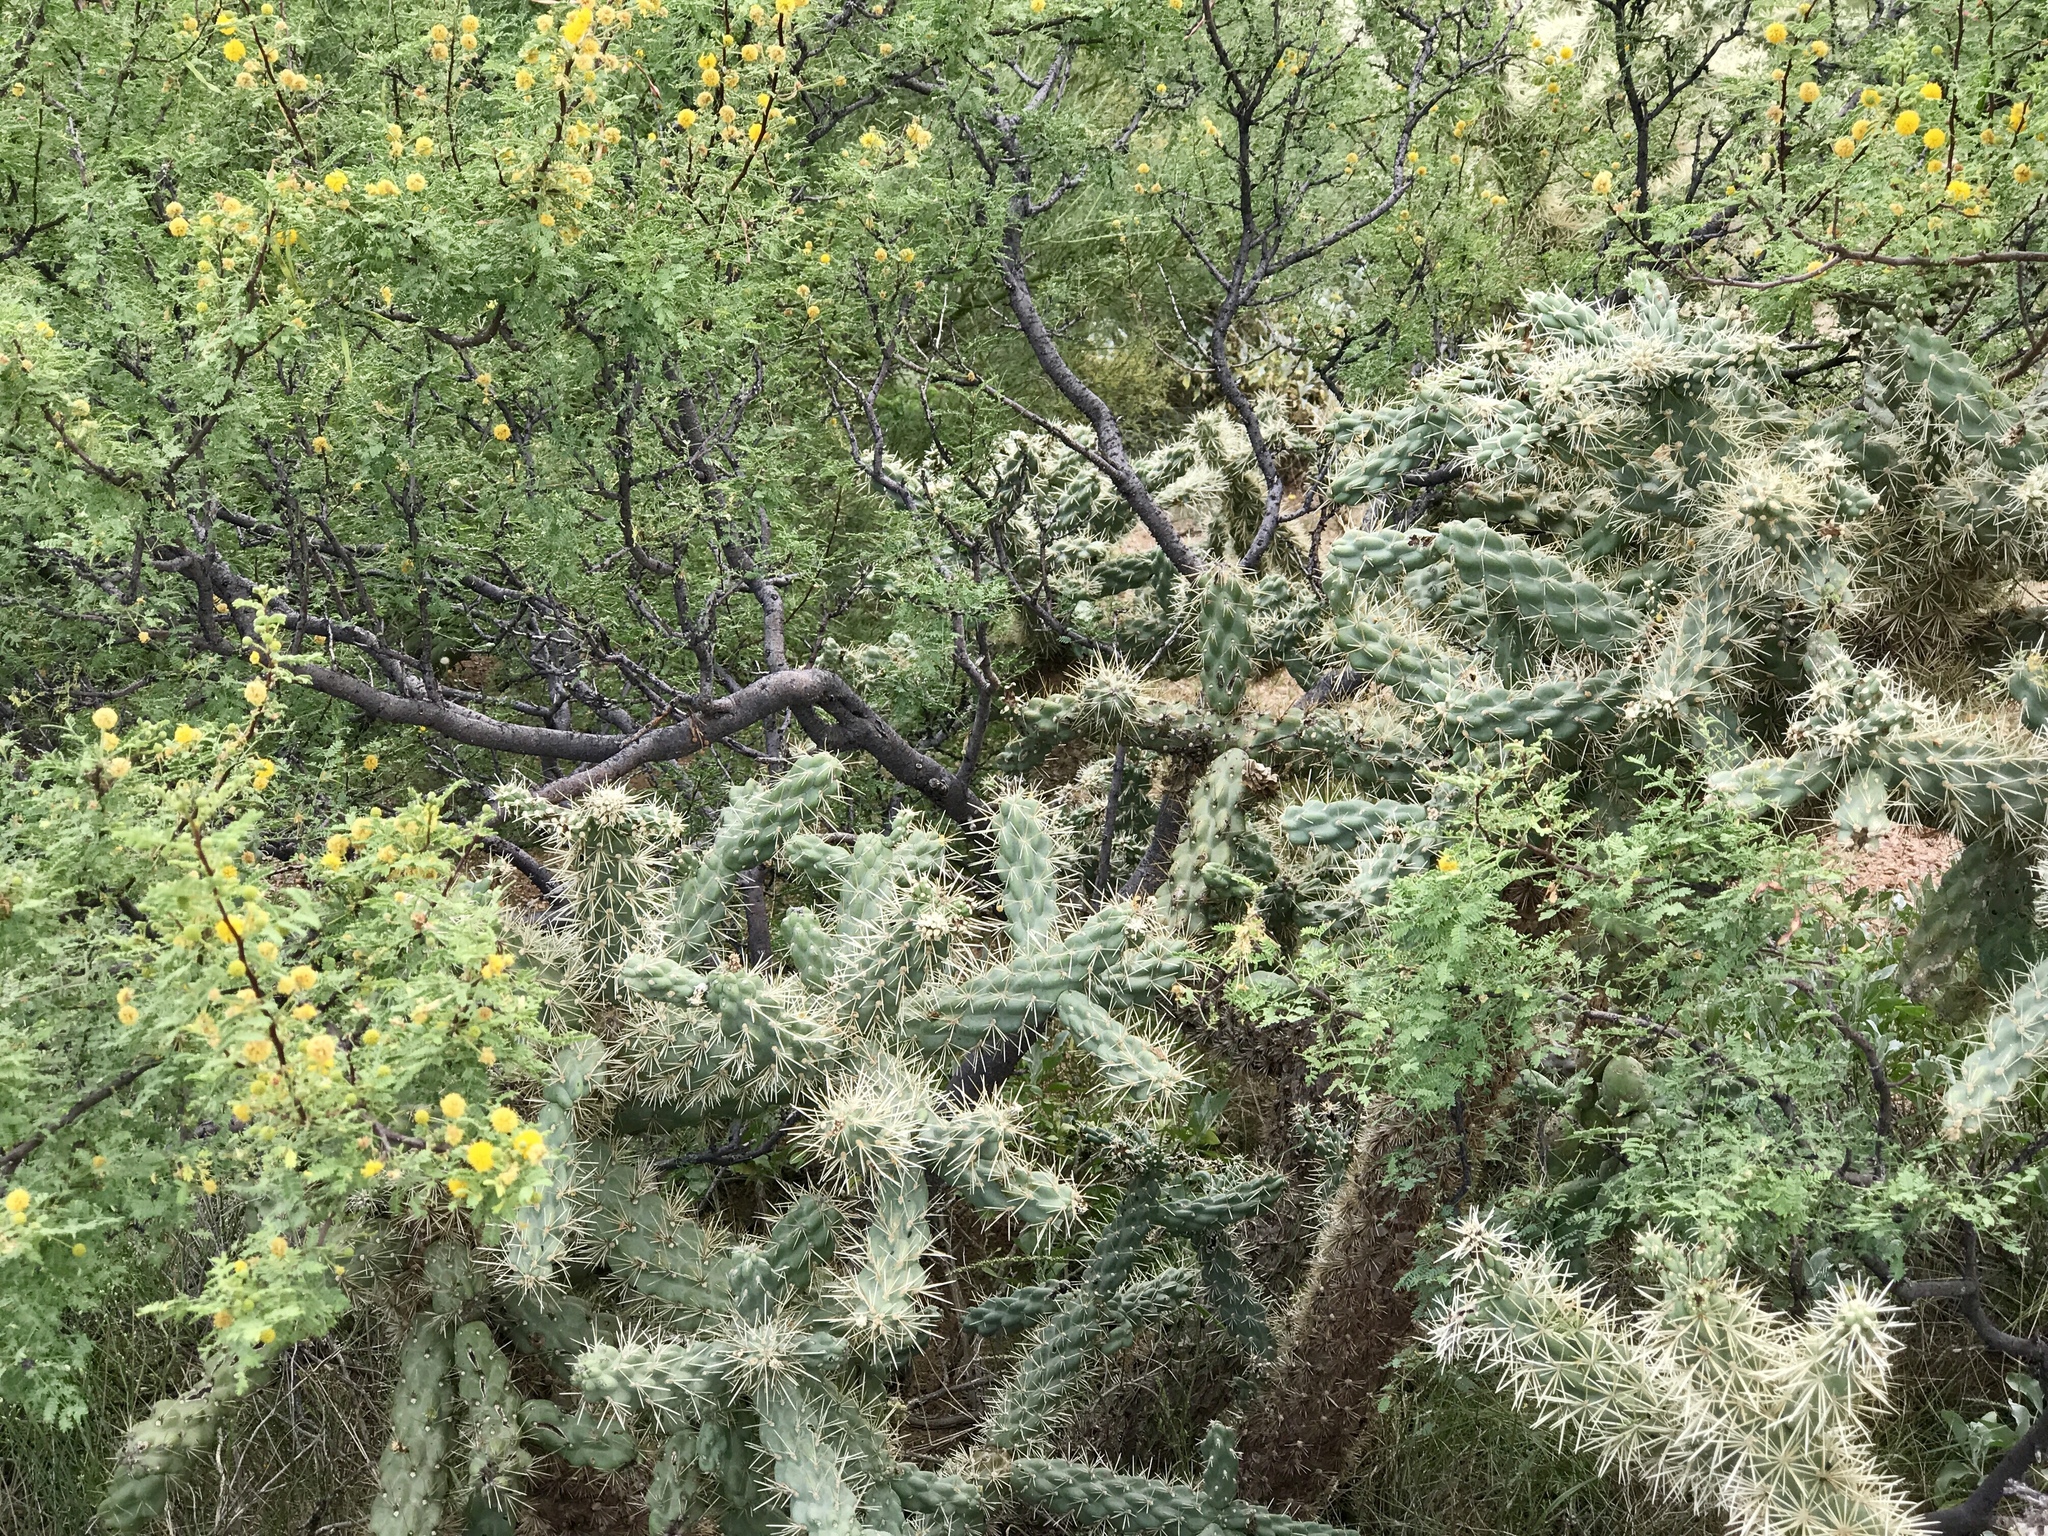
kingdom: Plantae
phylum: Tracheophyta
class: Magnoliopsida
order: Caryophyllales
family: Cactaceae
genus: Cylindropuntia
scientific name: Cylindropuntia fulgida
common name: Jumping cholla
